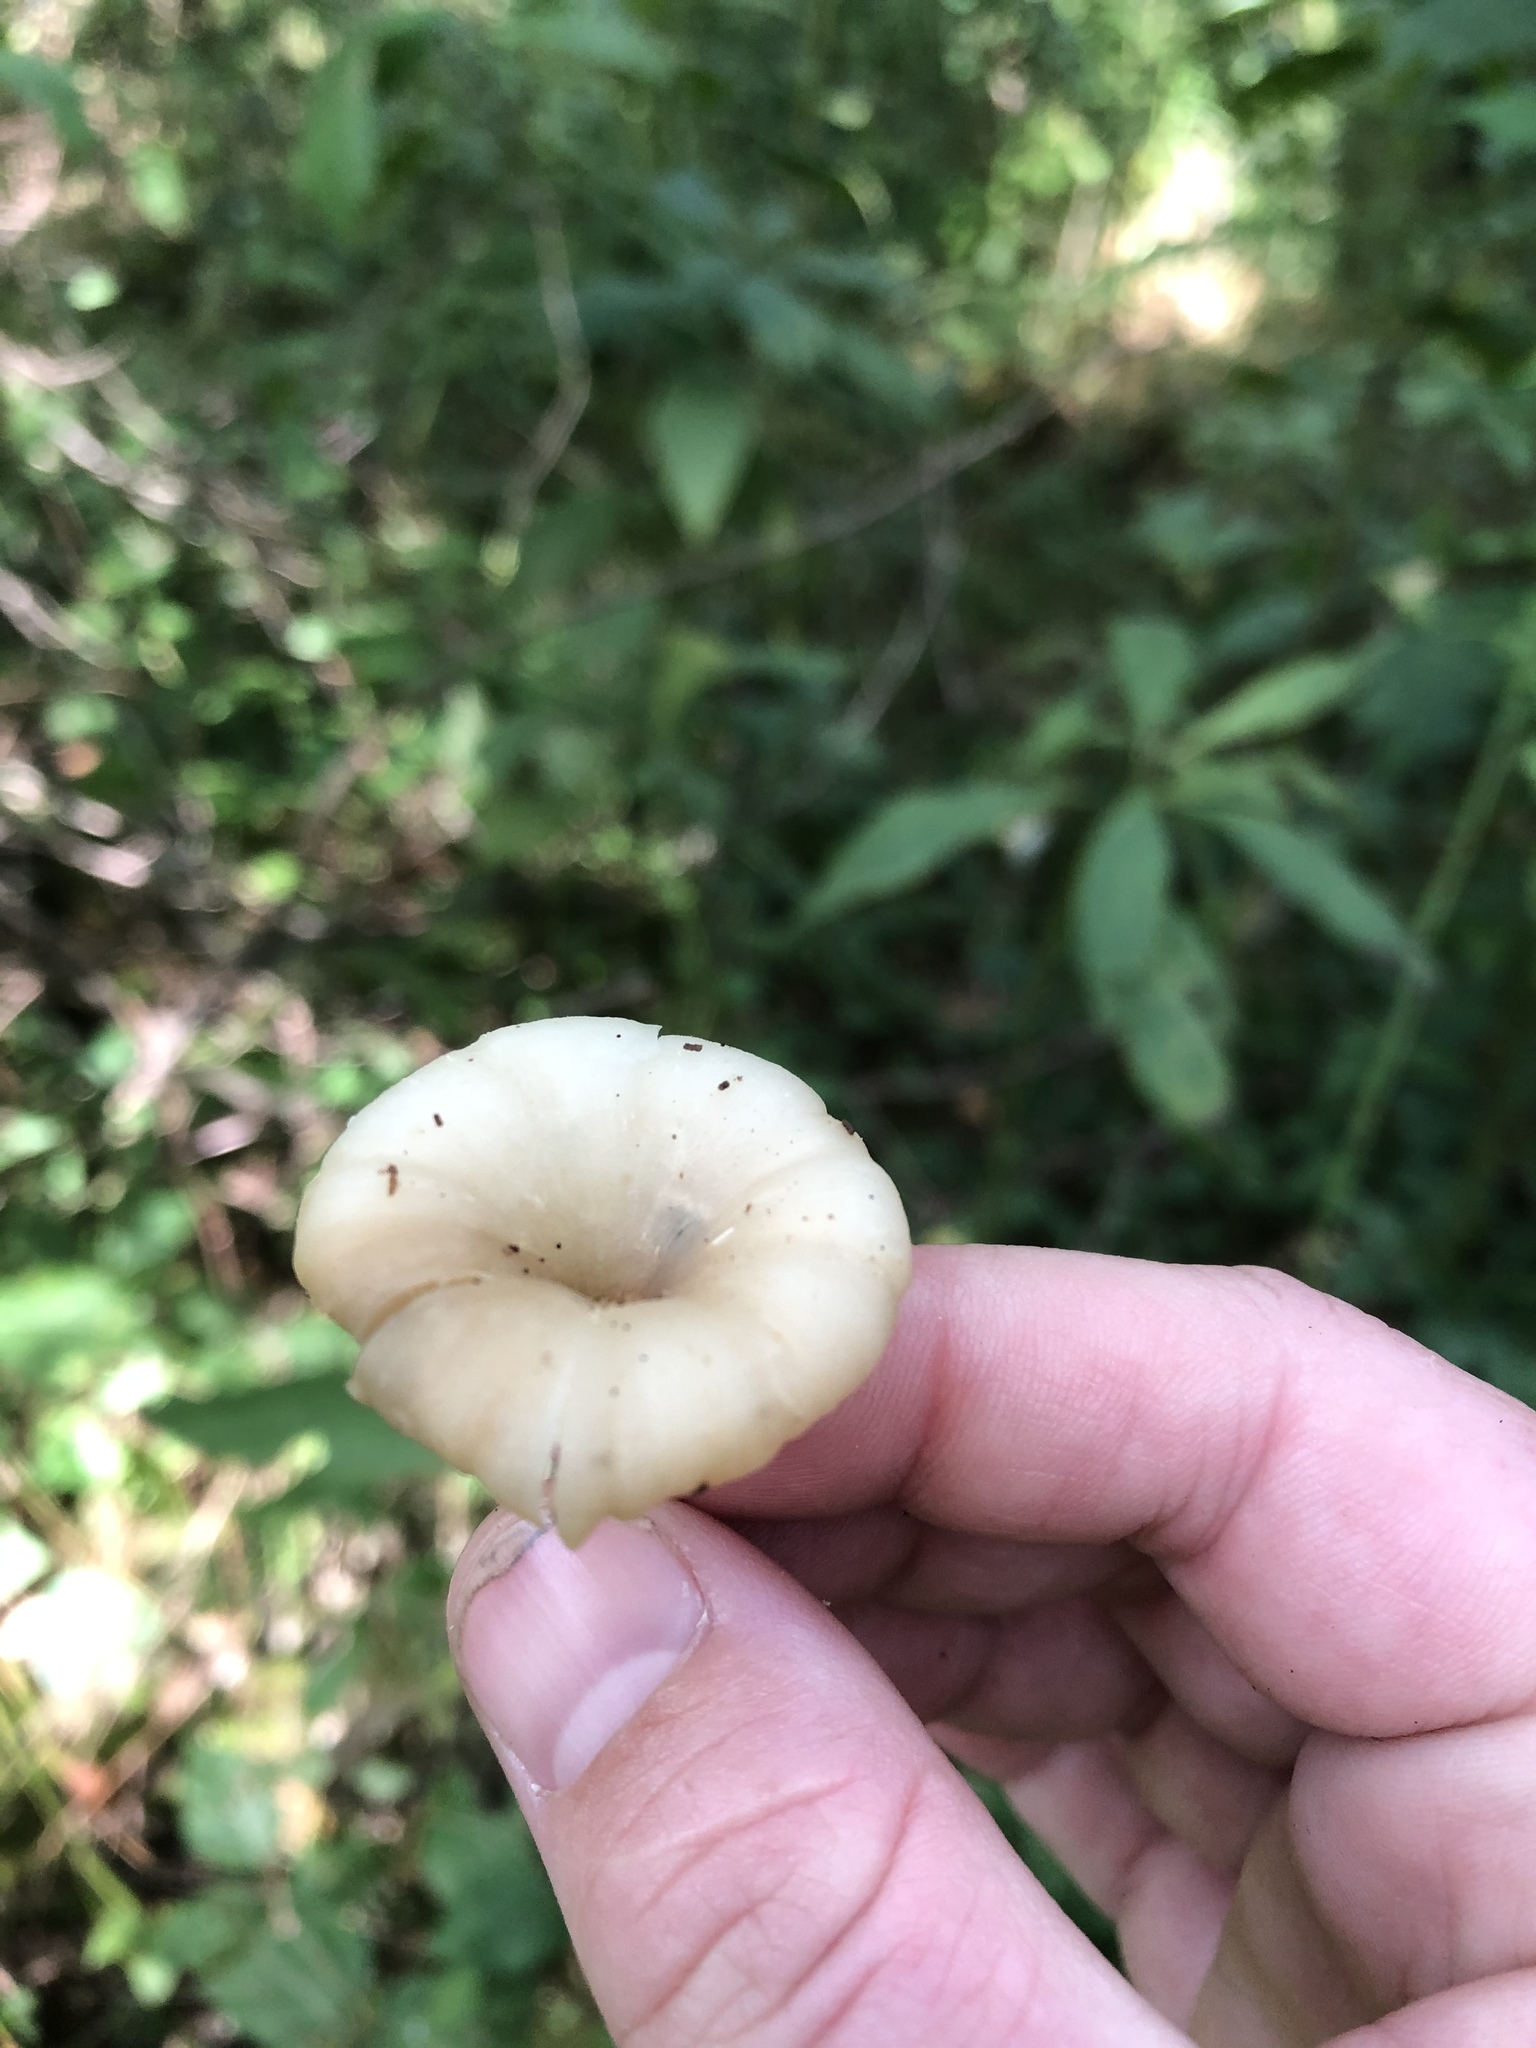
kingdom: Fungi
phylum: Basidiomycota
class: Agaricomycetes
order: Agaricales
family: Marasmiaceae
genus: Clitocybula
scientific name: Clitocybula oculus
